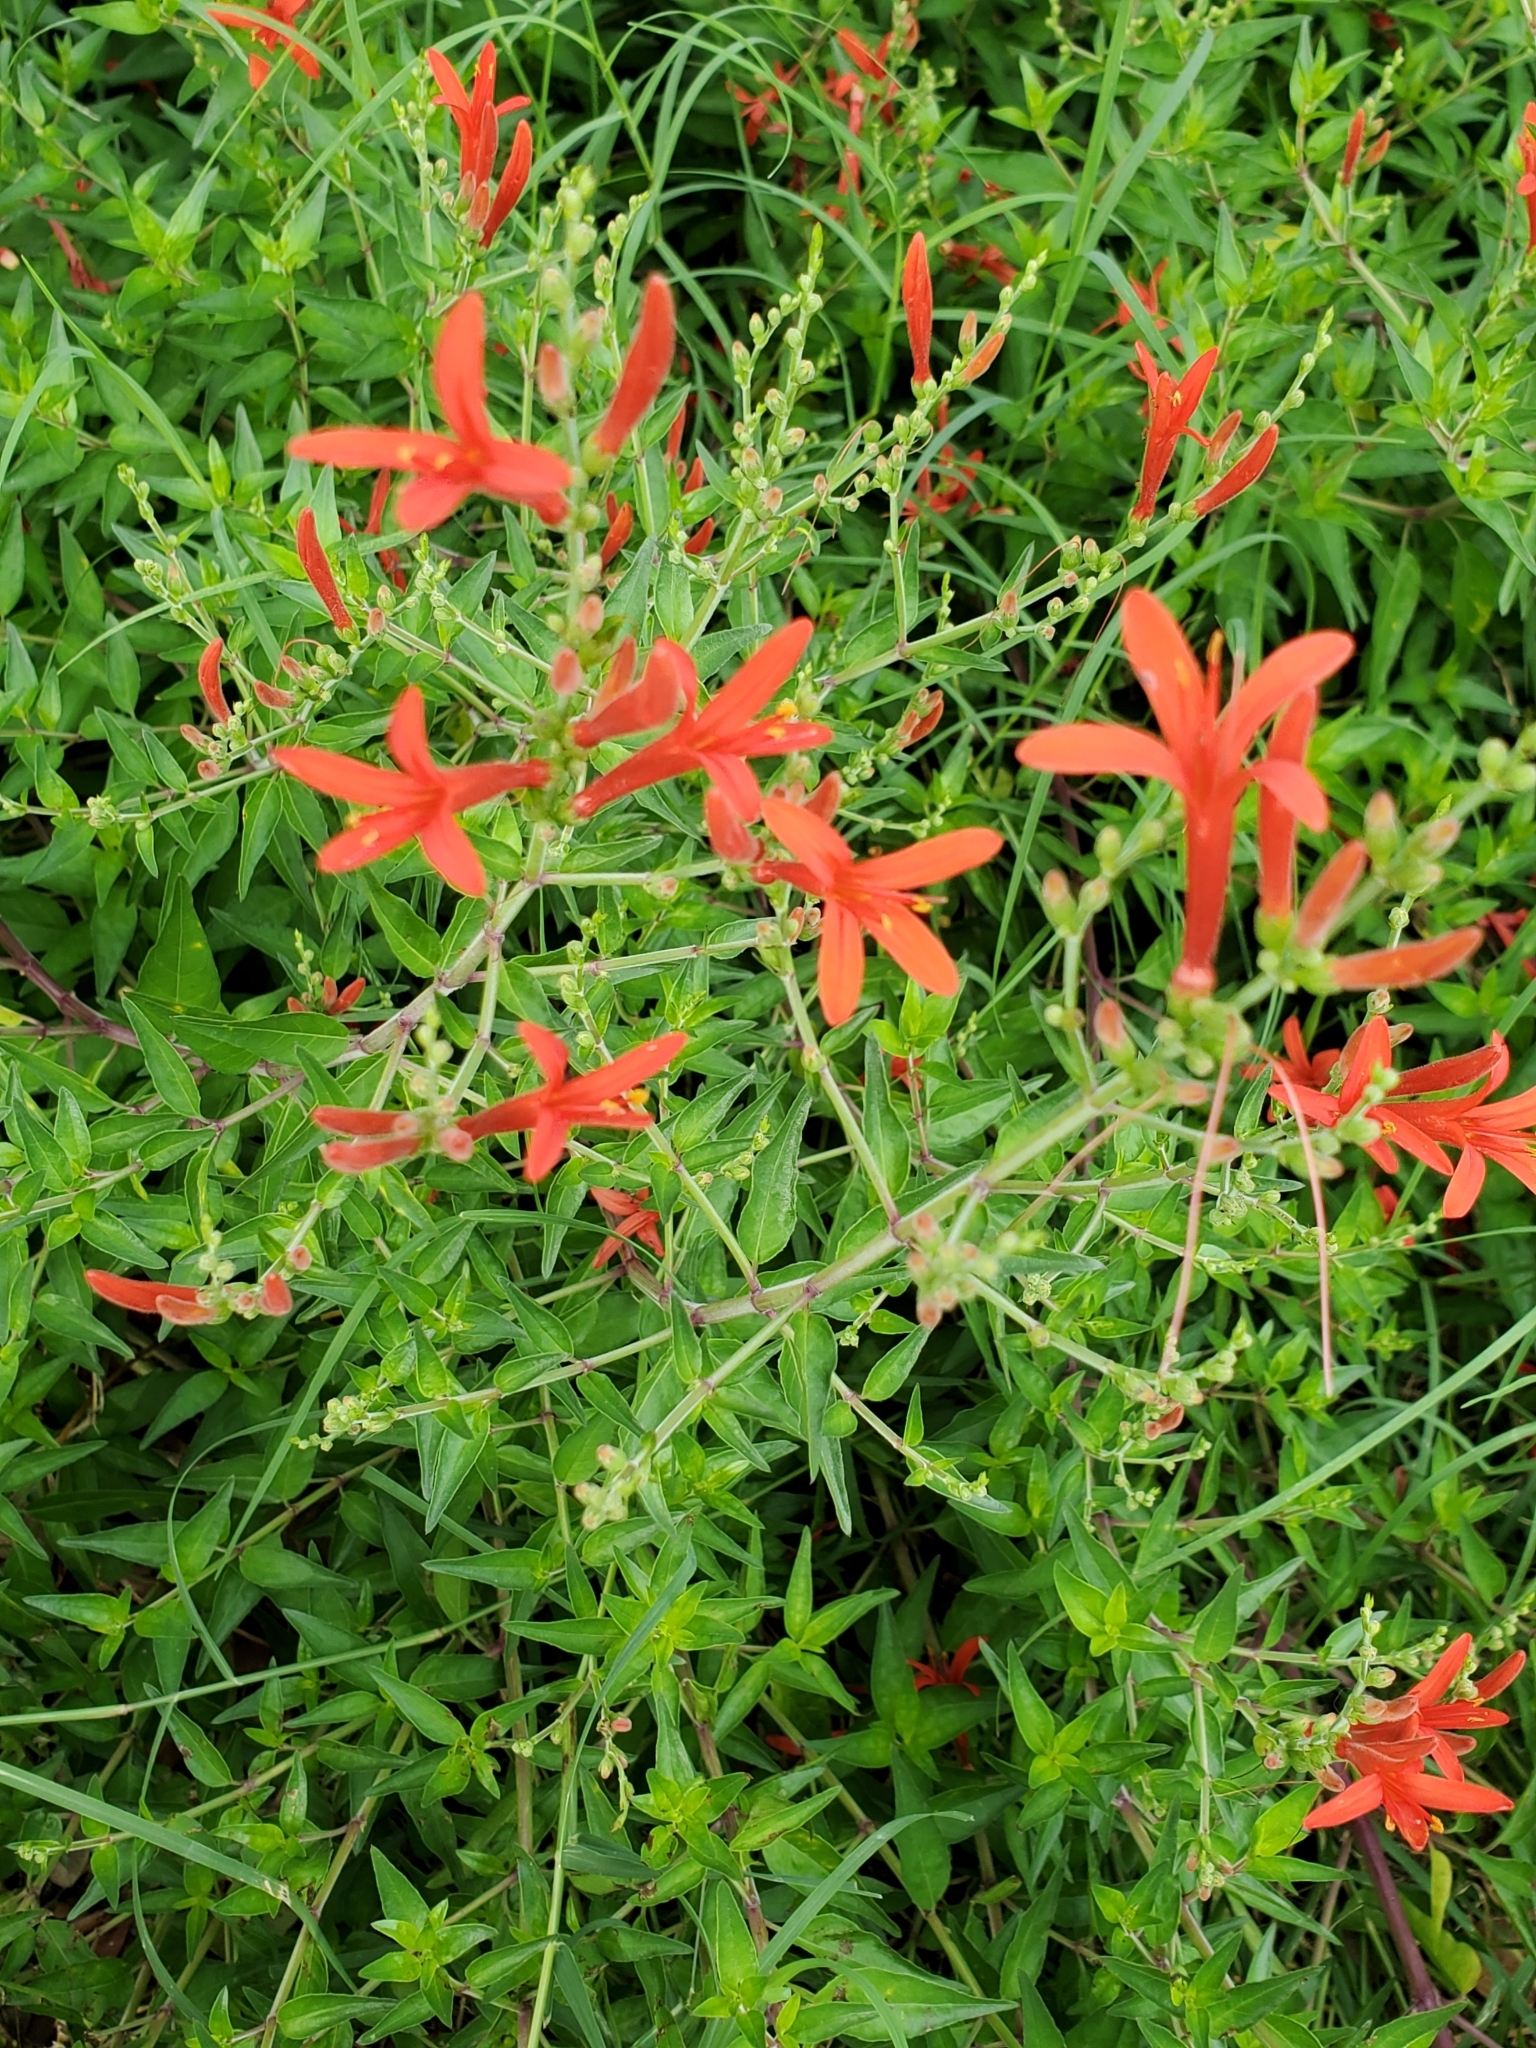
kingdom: Plantae
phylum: Tracheophyta
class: Magnoliopsida
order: Lamiales
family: Acanthaceae
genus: Anisacanthus
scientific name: Anisacanthus quadrifidus
